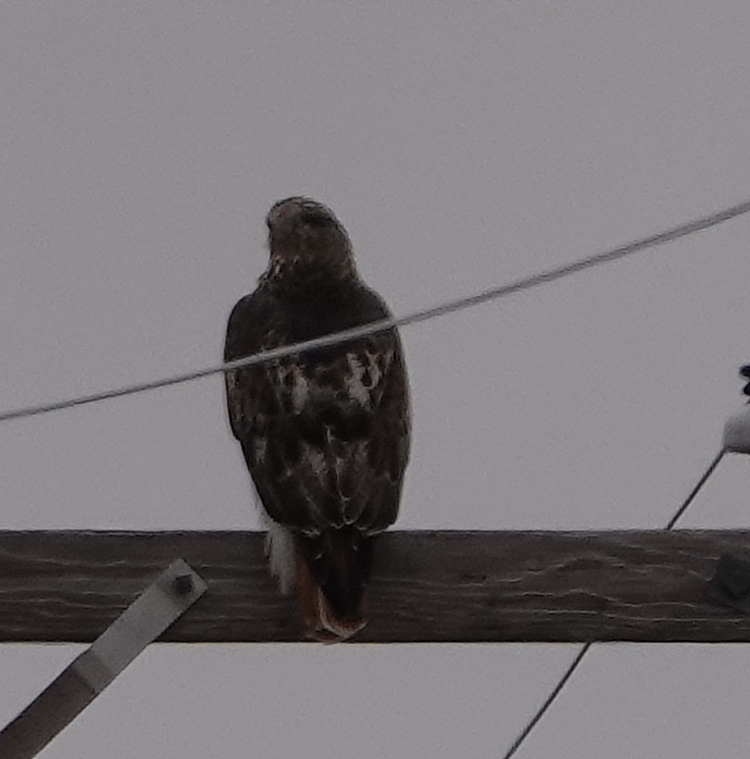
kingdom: Animalia
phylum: Chordata
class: Aves
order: Accipitriformes
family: Accipitridae
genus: Buteo
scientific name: Buteo jamaicensis
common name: Red-tailed hawk
